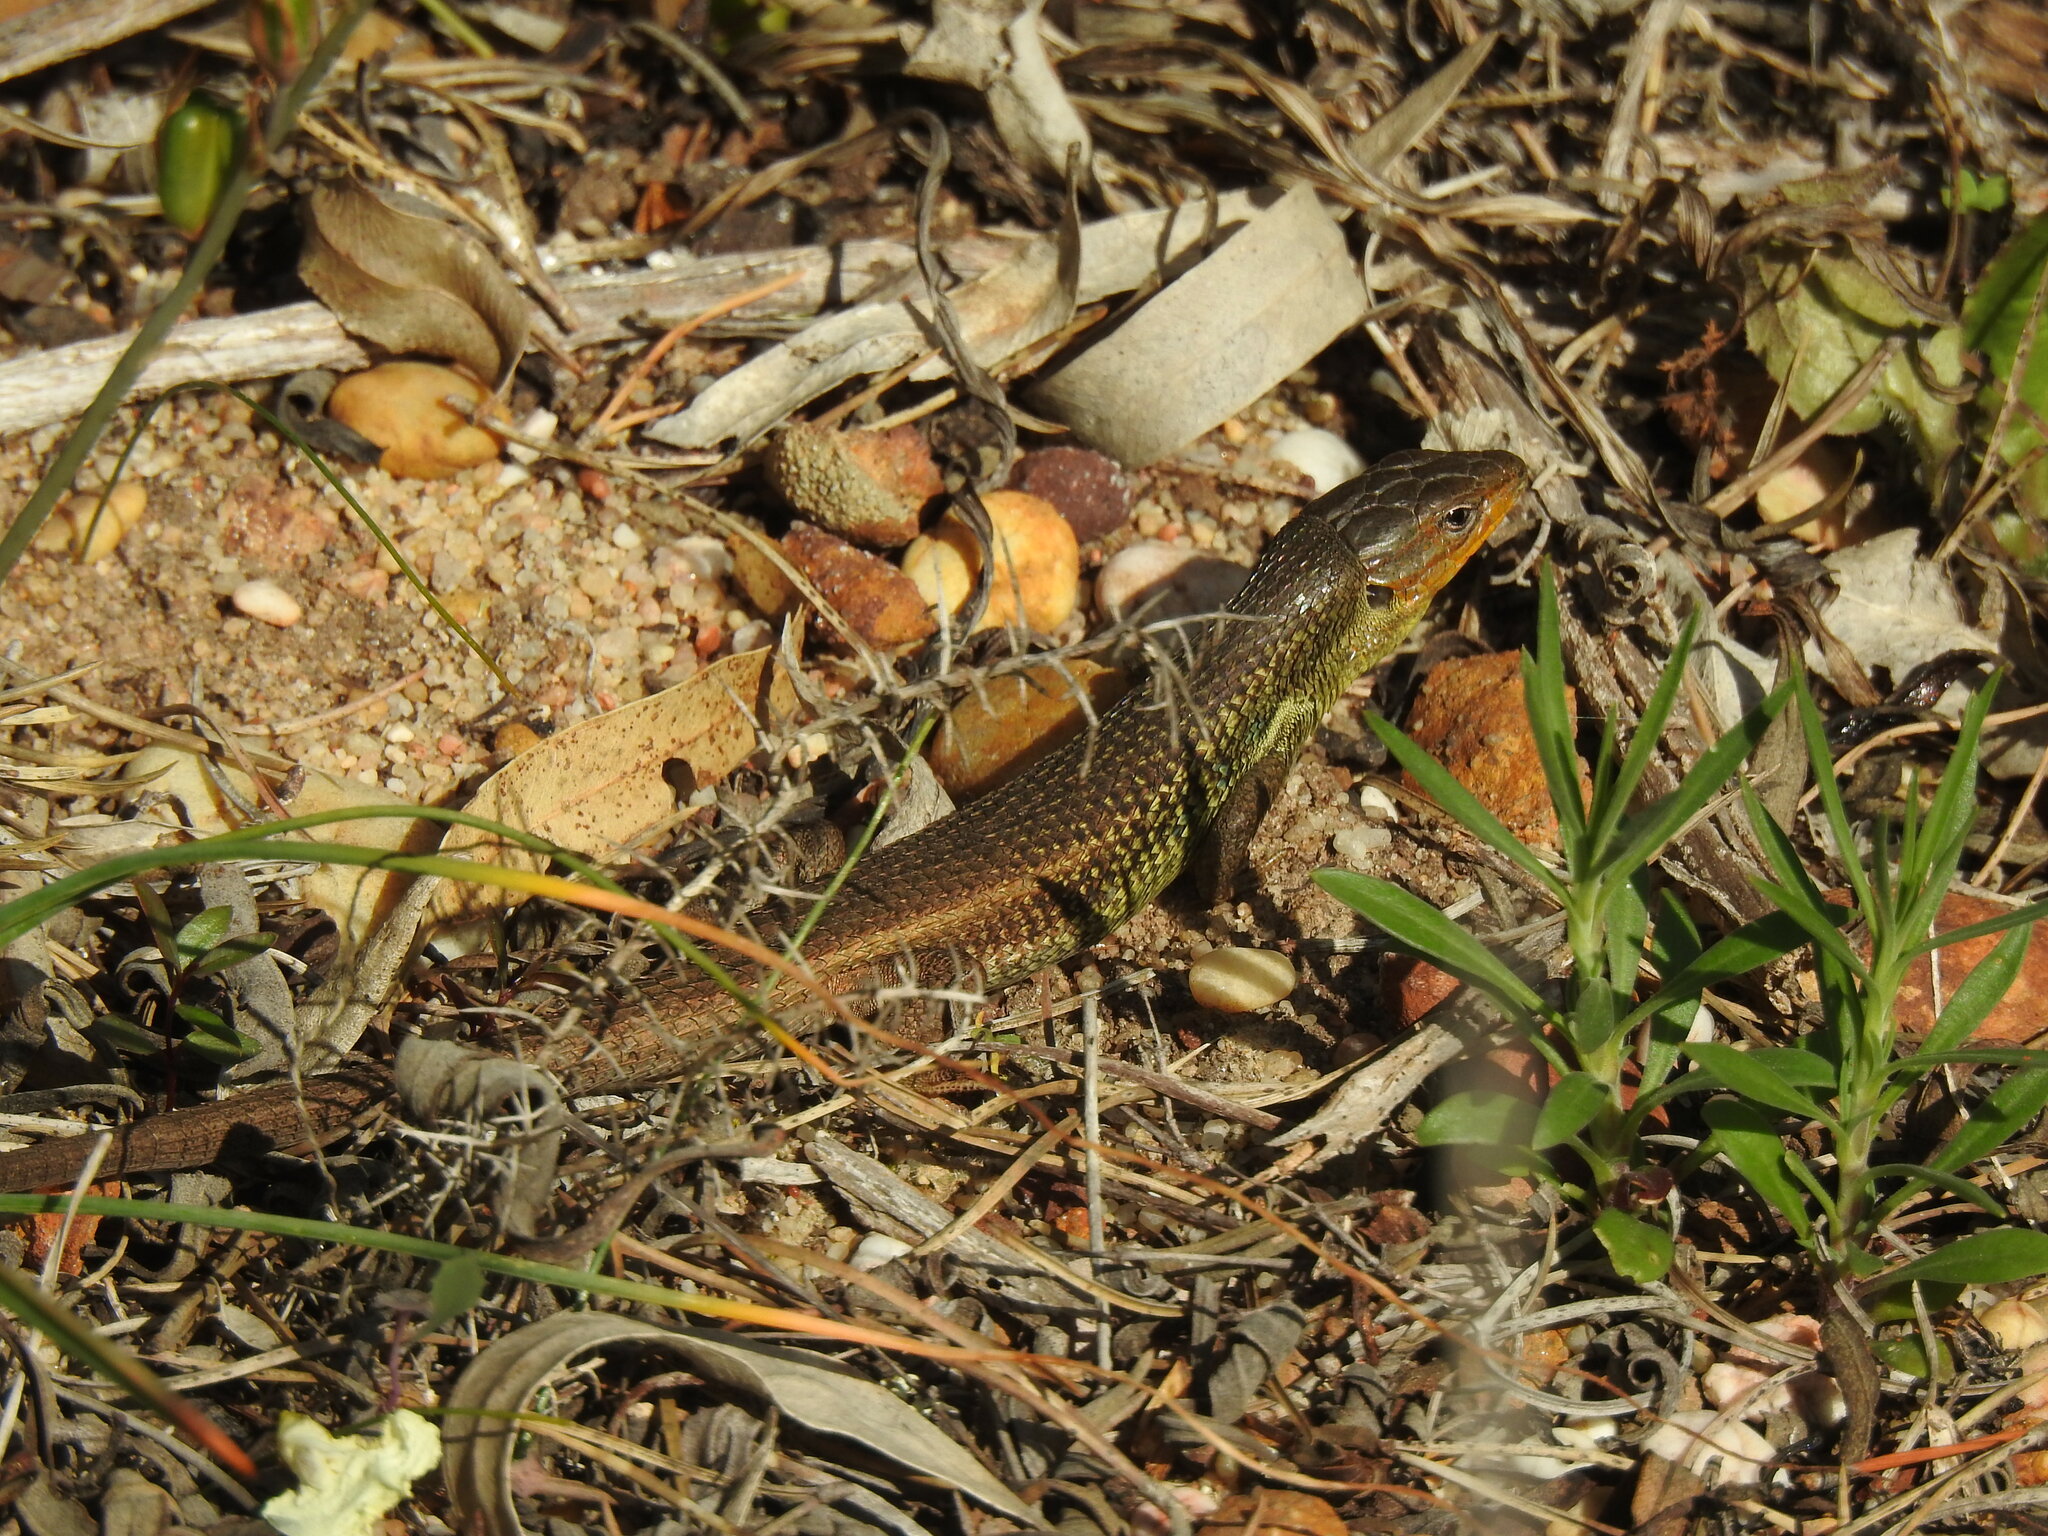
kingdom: Animalia
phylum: Chordata
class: Squamata
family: Lacertidae
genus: Psammodromus
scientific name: Psammodromus algirus
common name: Algerian psammodromus
